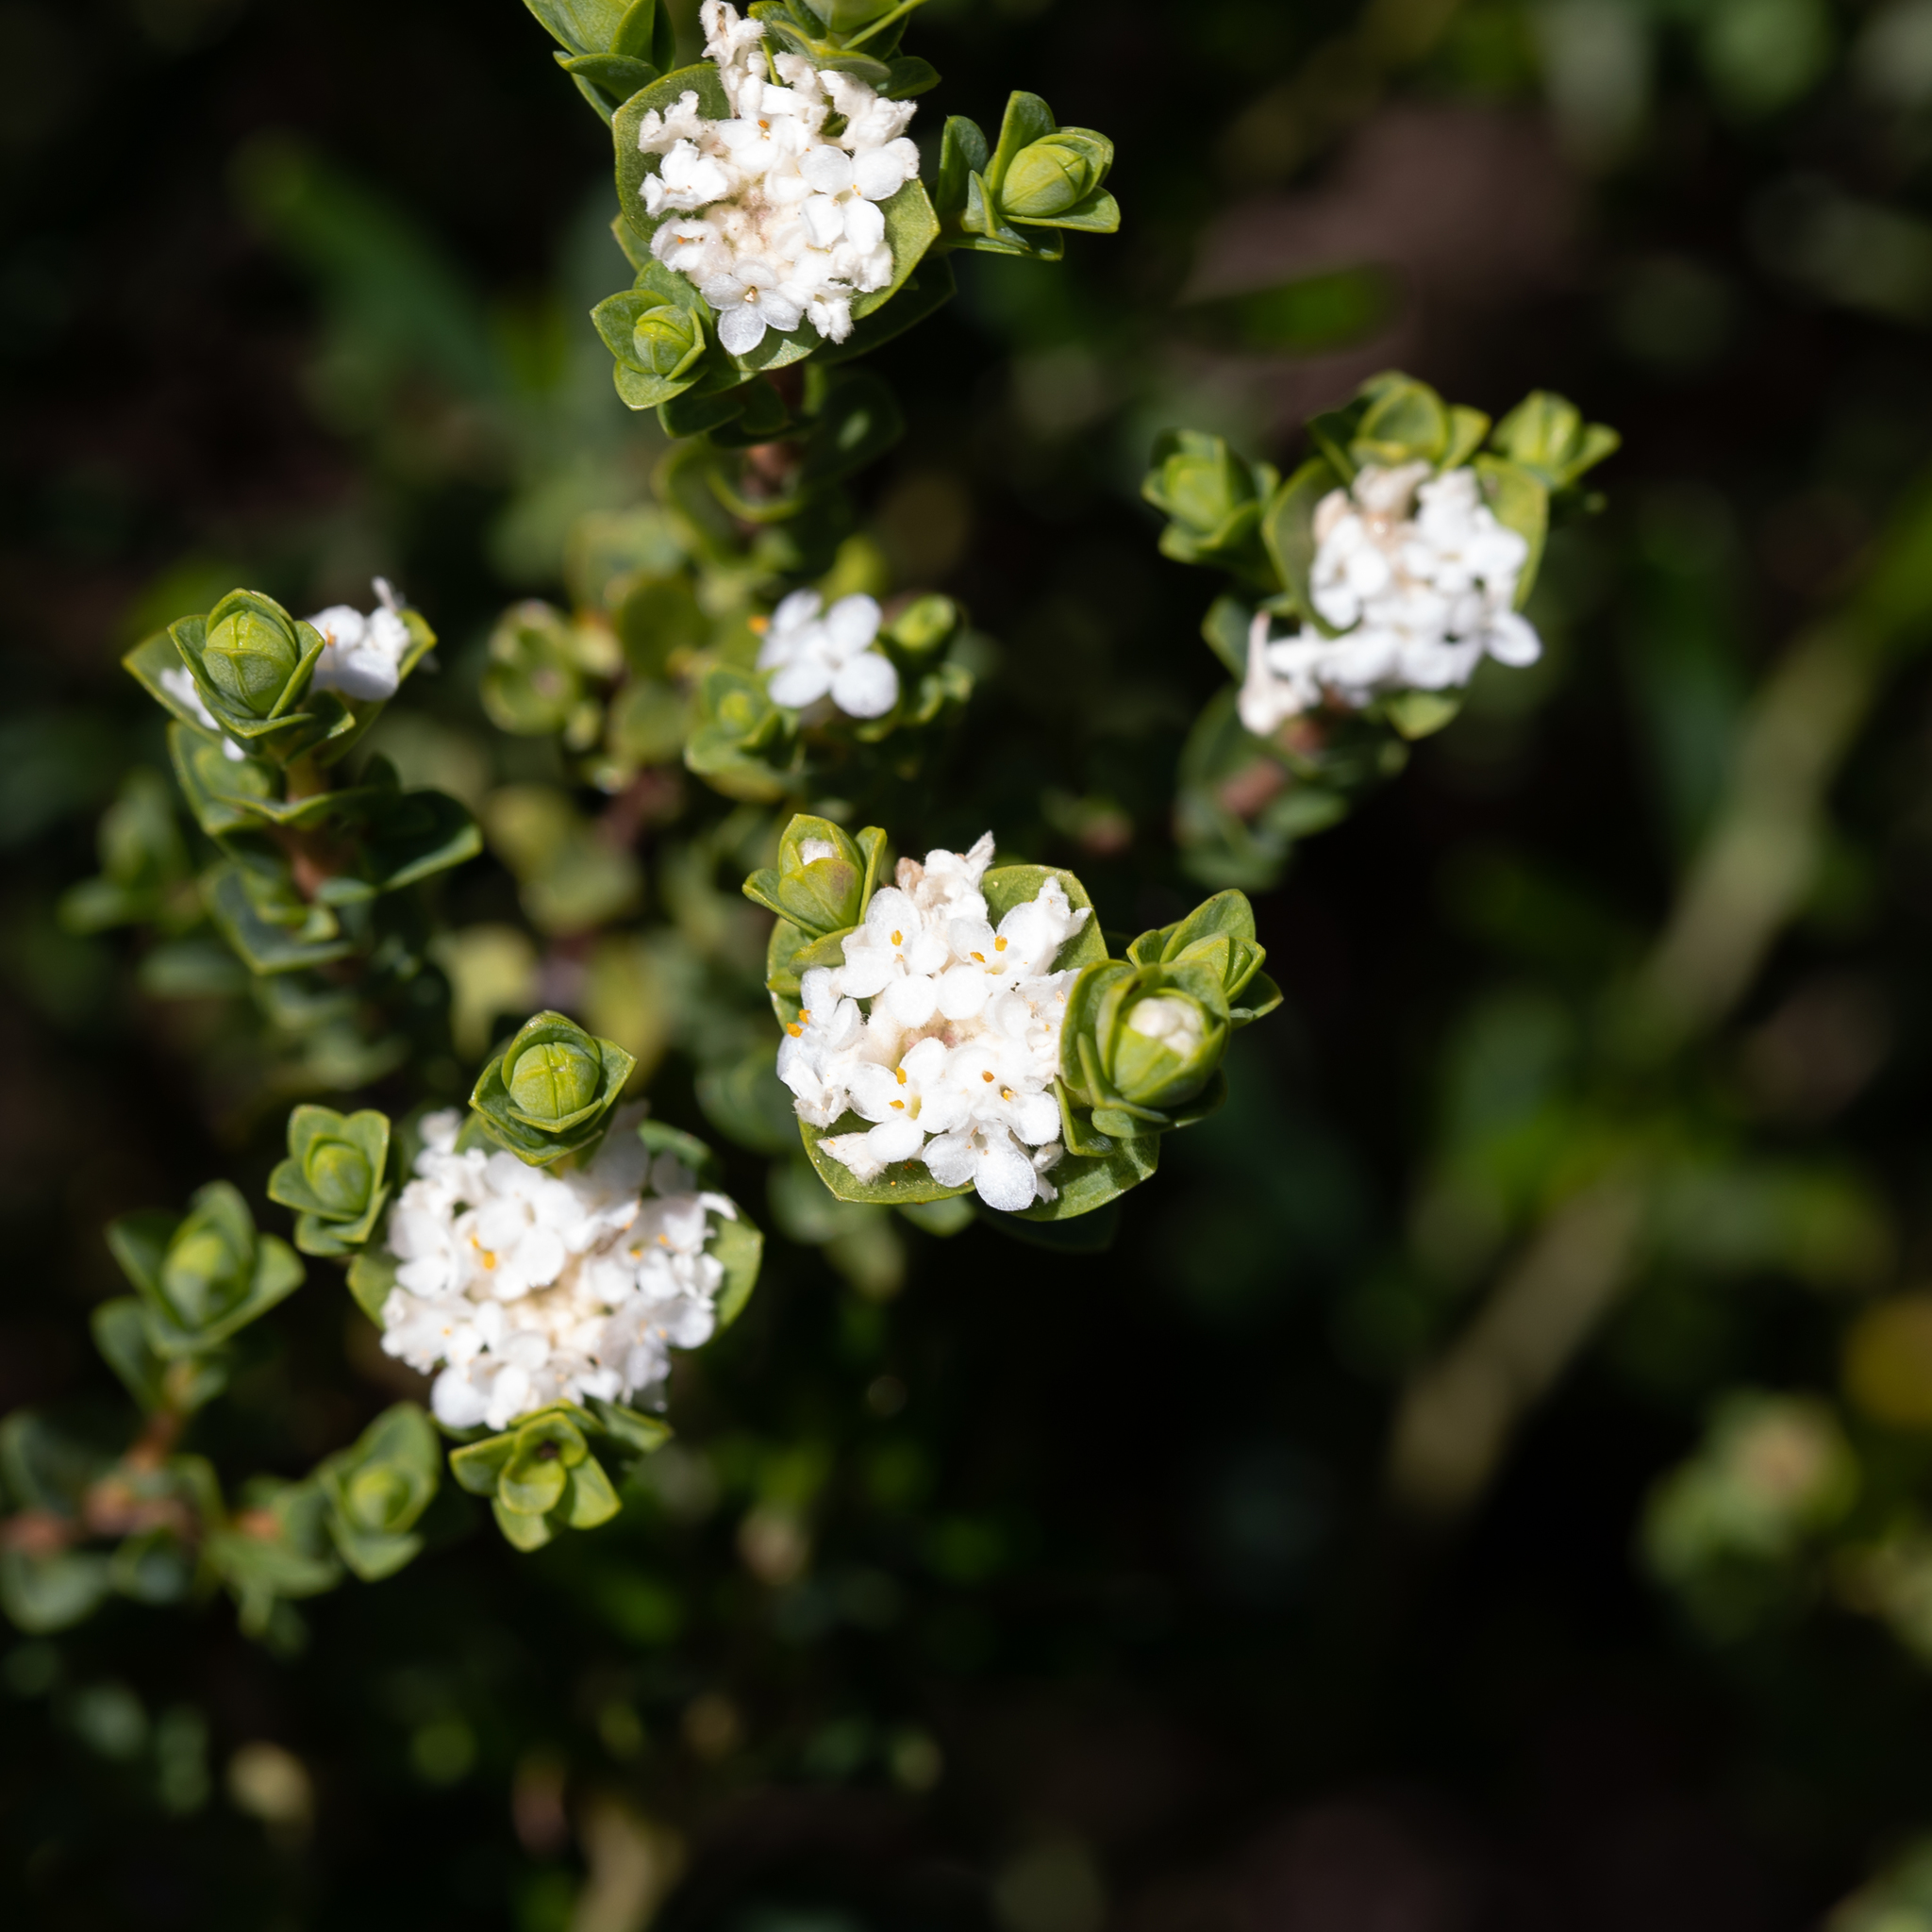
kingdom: Plantae
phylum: Tracheophyta
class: Magnoliopsida
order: Malvales
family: Thymelaeaceae
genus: Pimelea
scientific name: Pimelea flava
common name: Yellow riceflower
